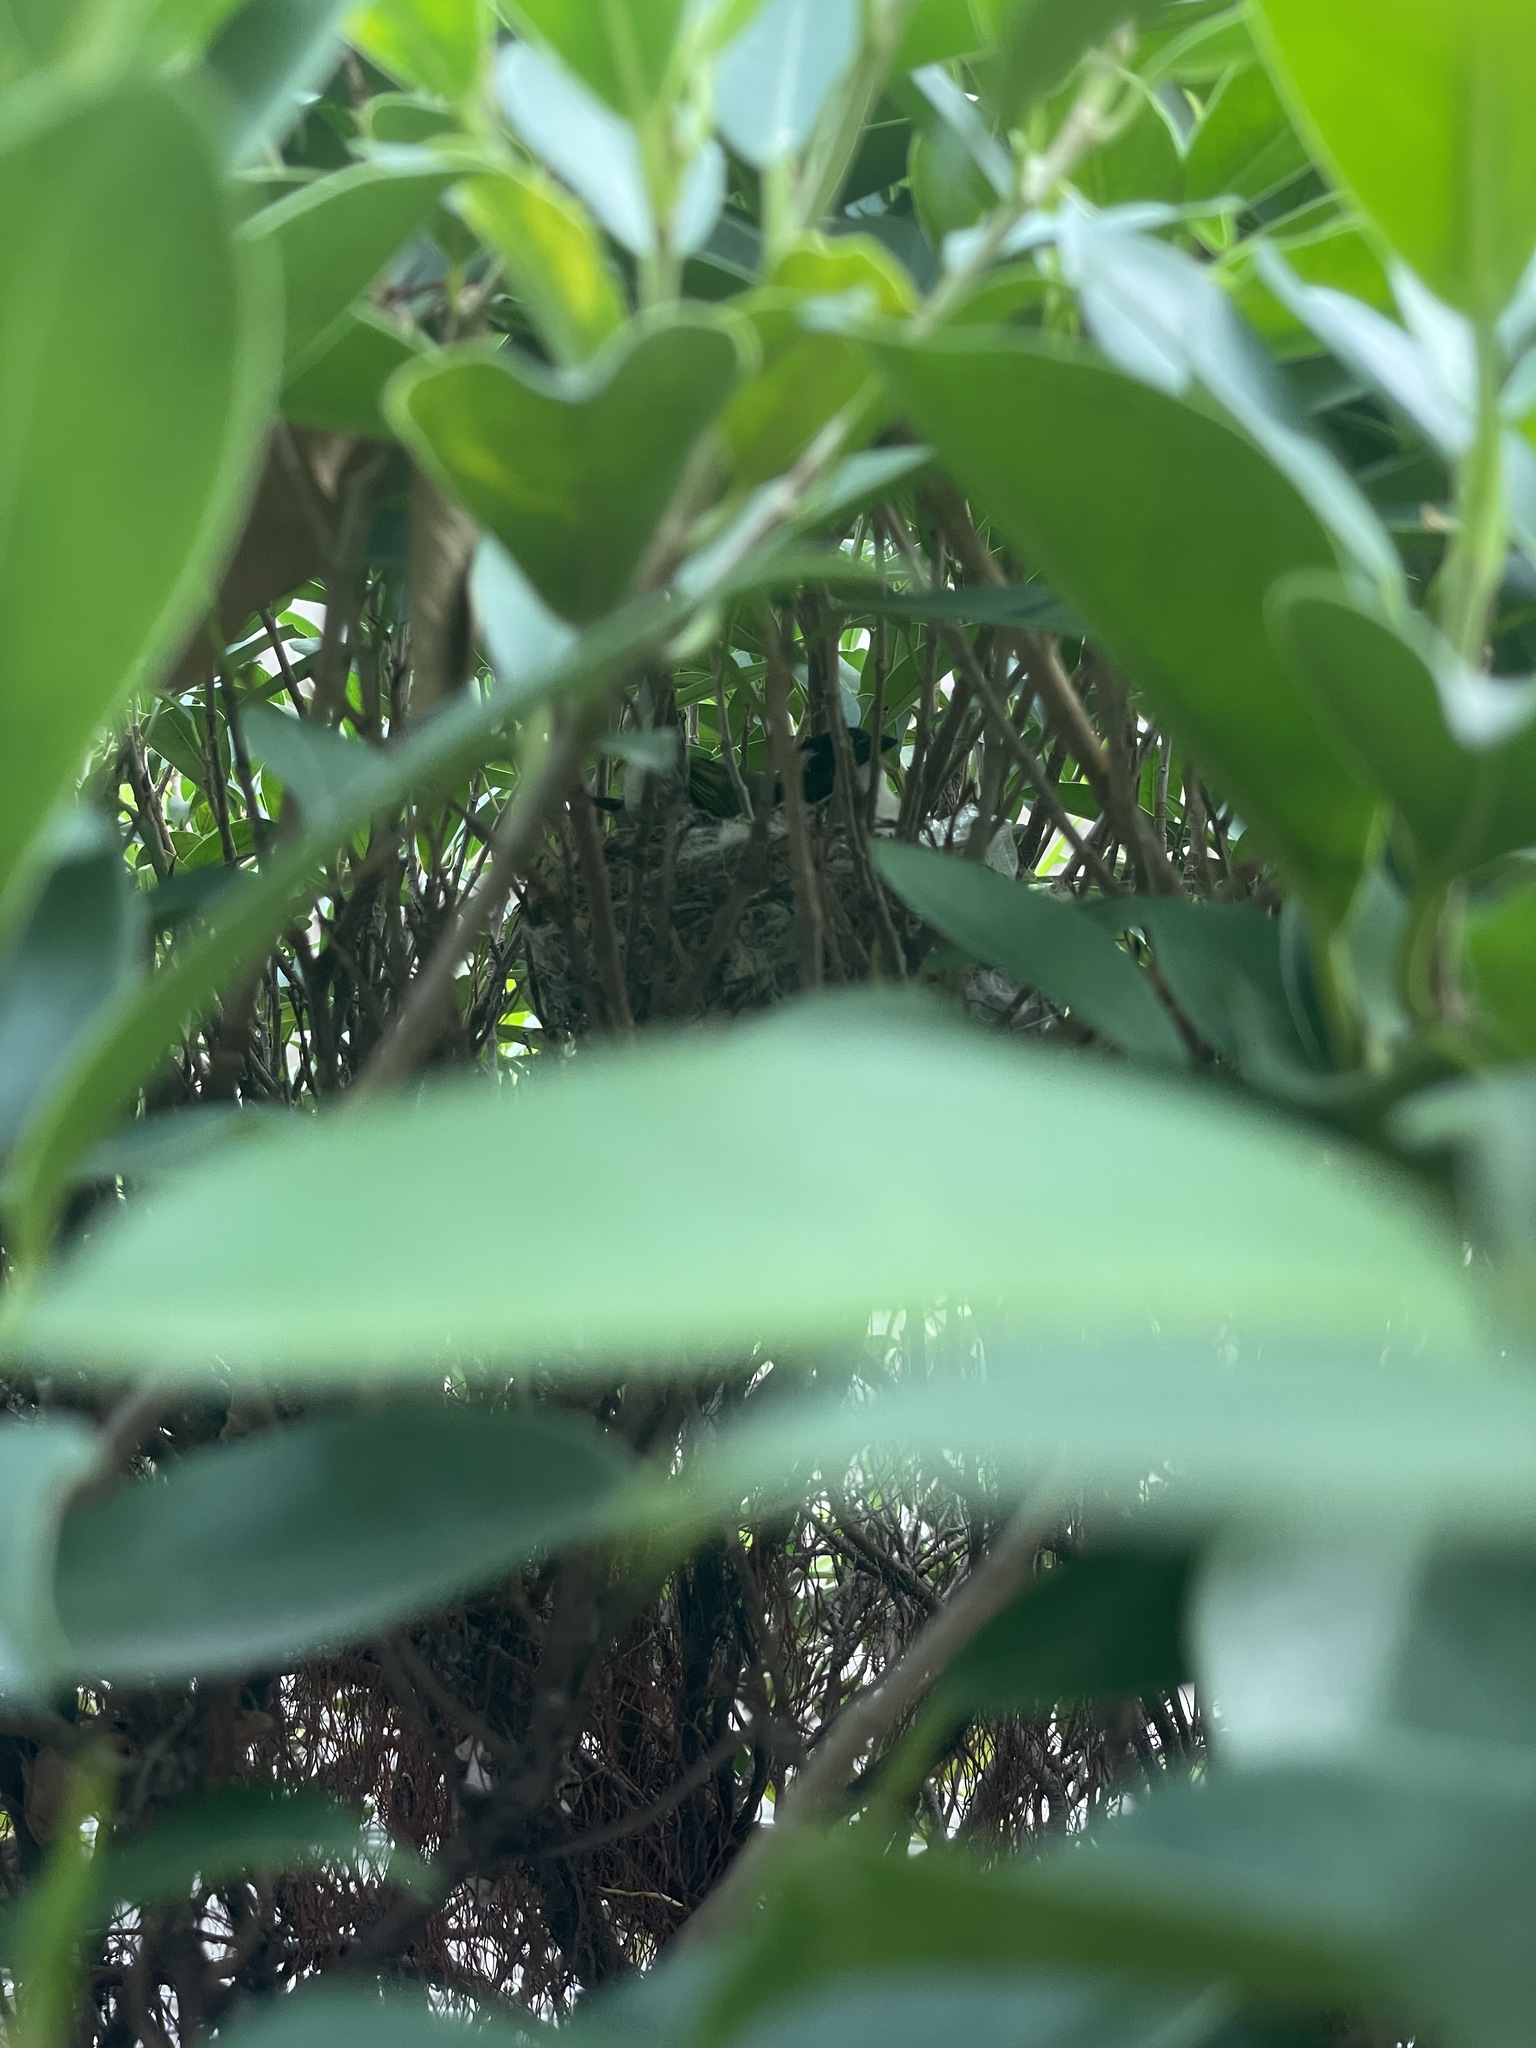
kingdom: Animalia
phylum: Chordata
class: Aves
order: Passeriformes
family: Pycnonotidae
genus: Pycnonotus
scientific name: Pycnonotus sinensis
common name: Light-vented bulbul
